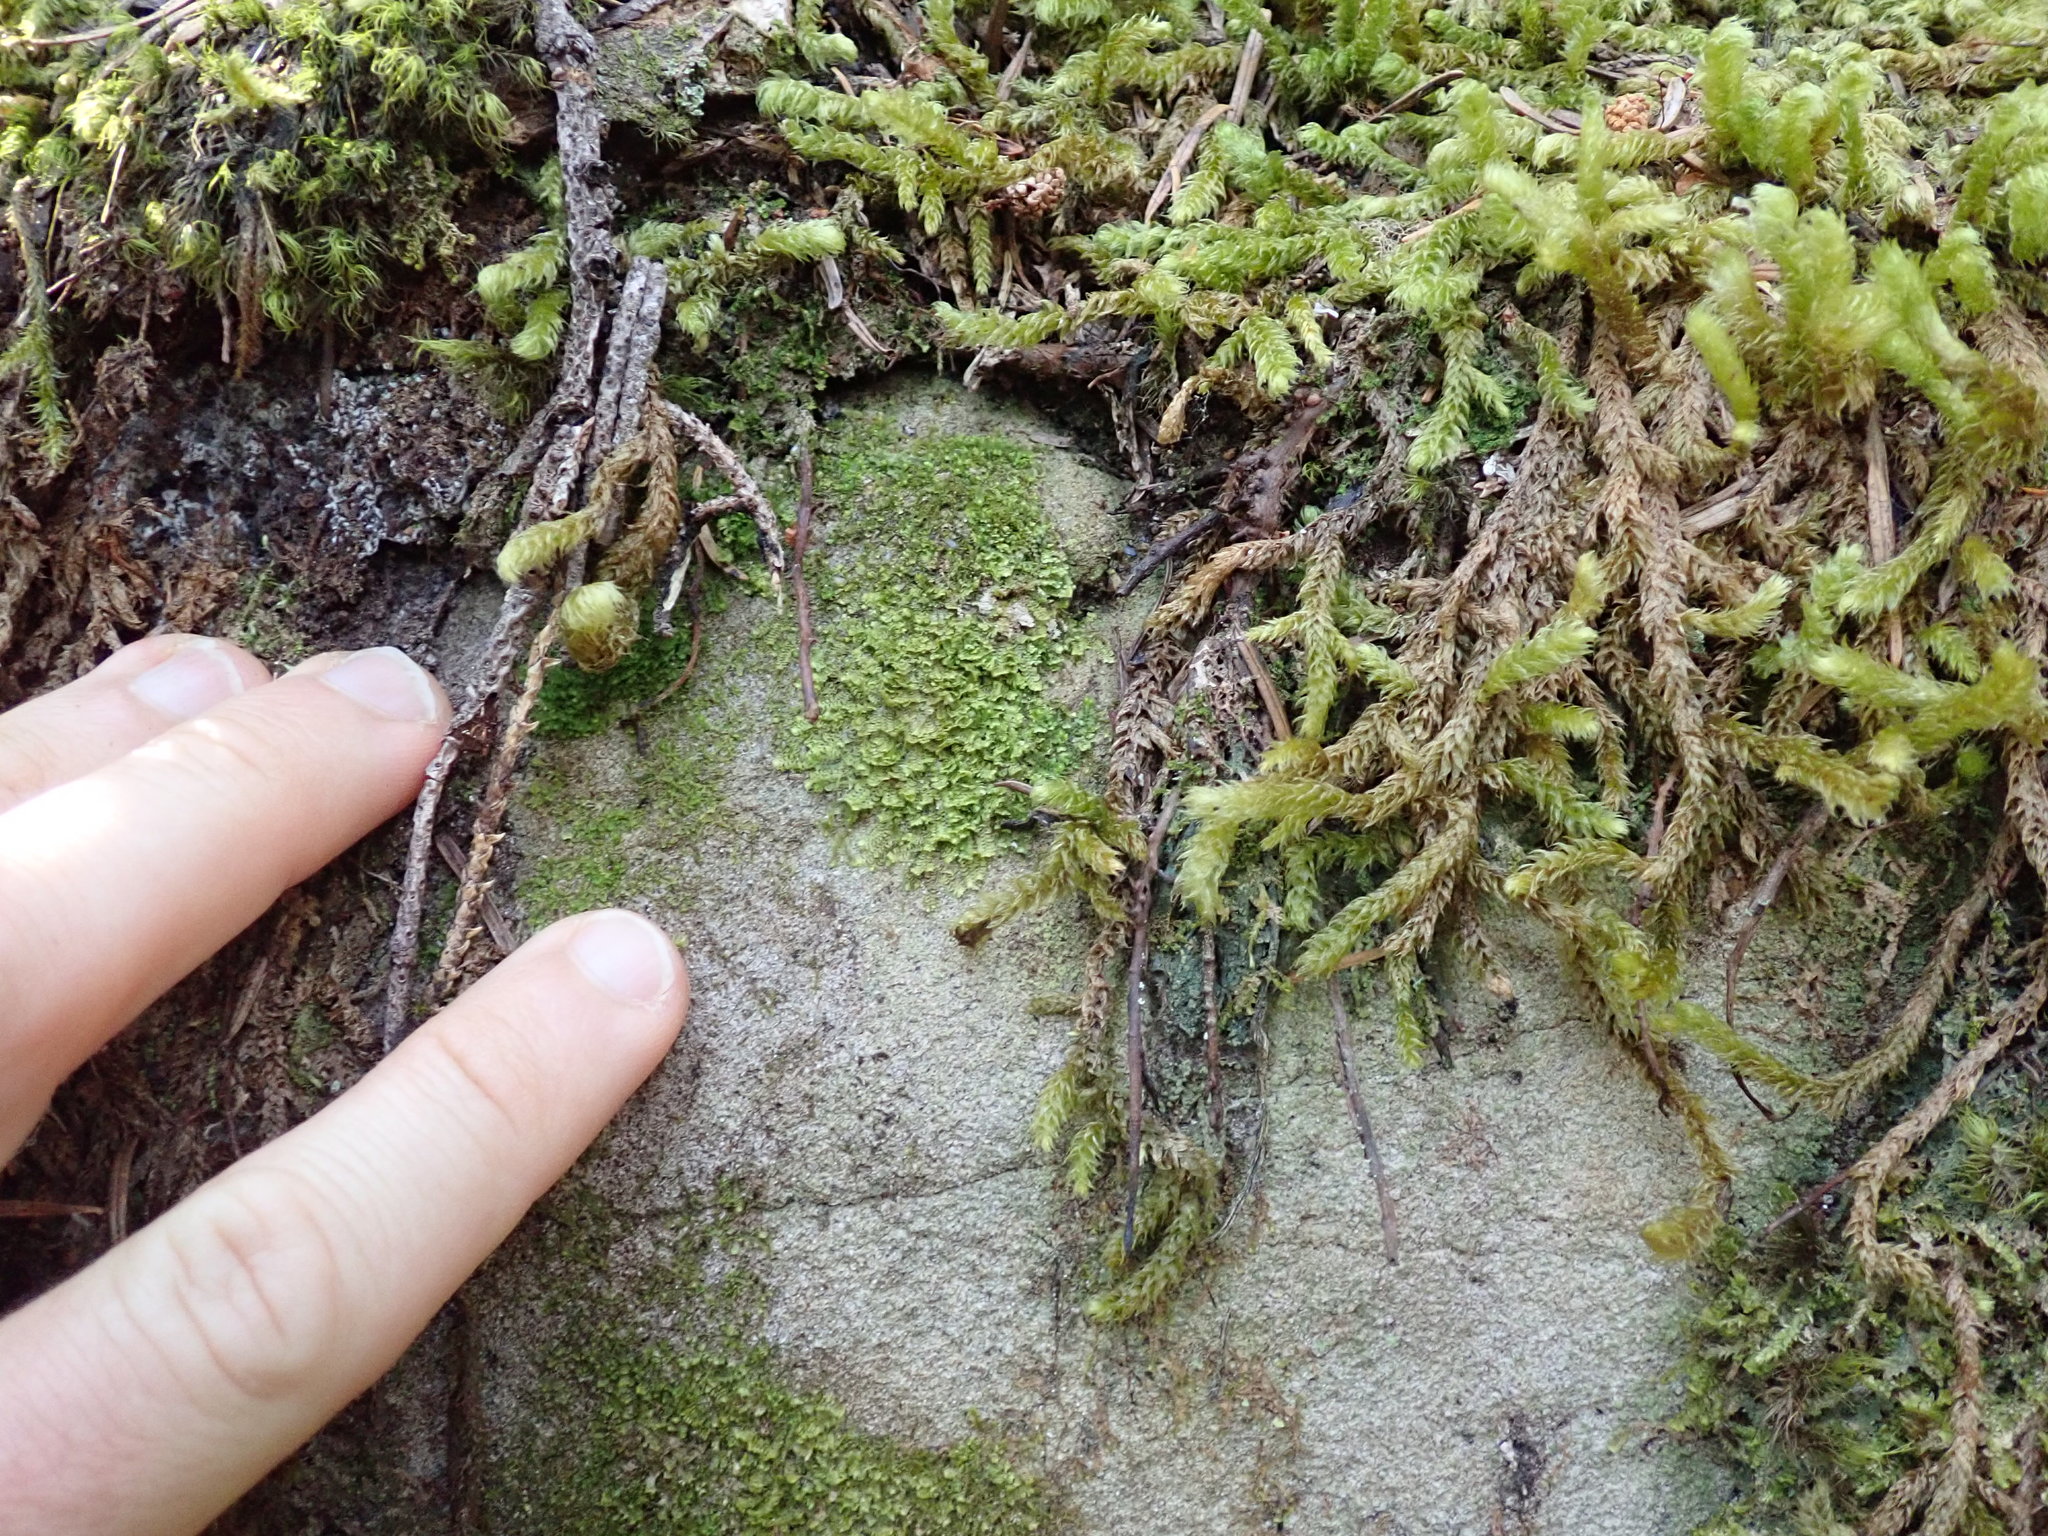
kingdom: Plantae
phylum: Marchantiophyta
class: Jungermanniopsida
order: Jungermanniales
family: Scapaniaceae
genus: Diplophyllum
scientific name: Diplophyllum albicans
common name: White earwort
